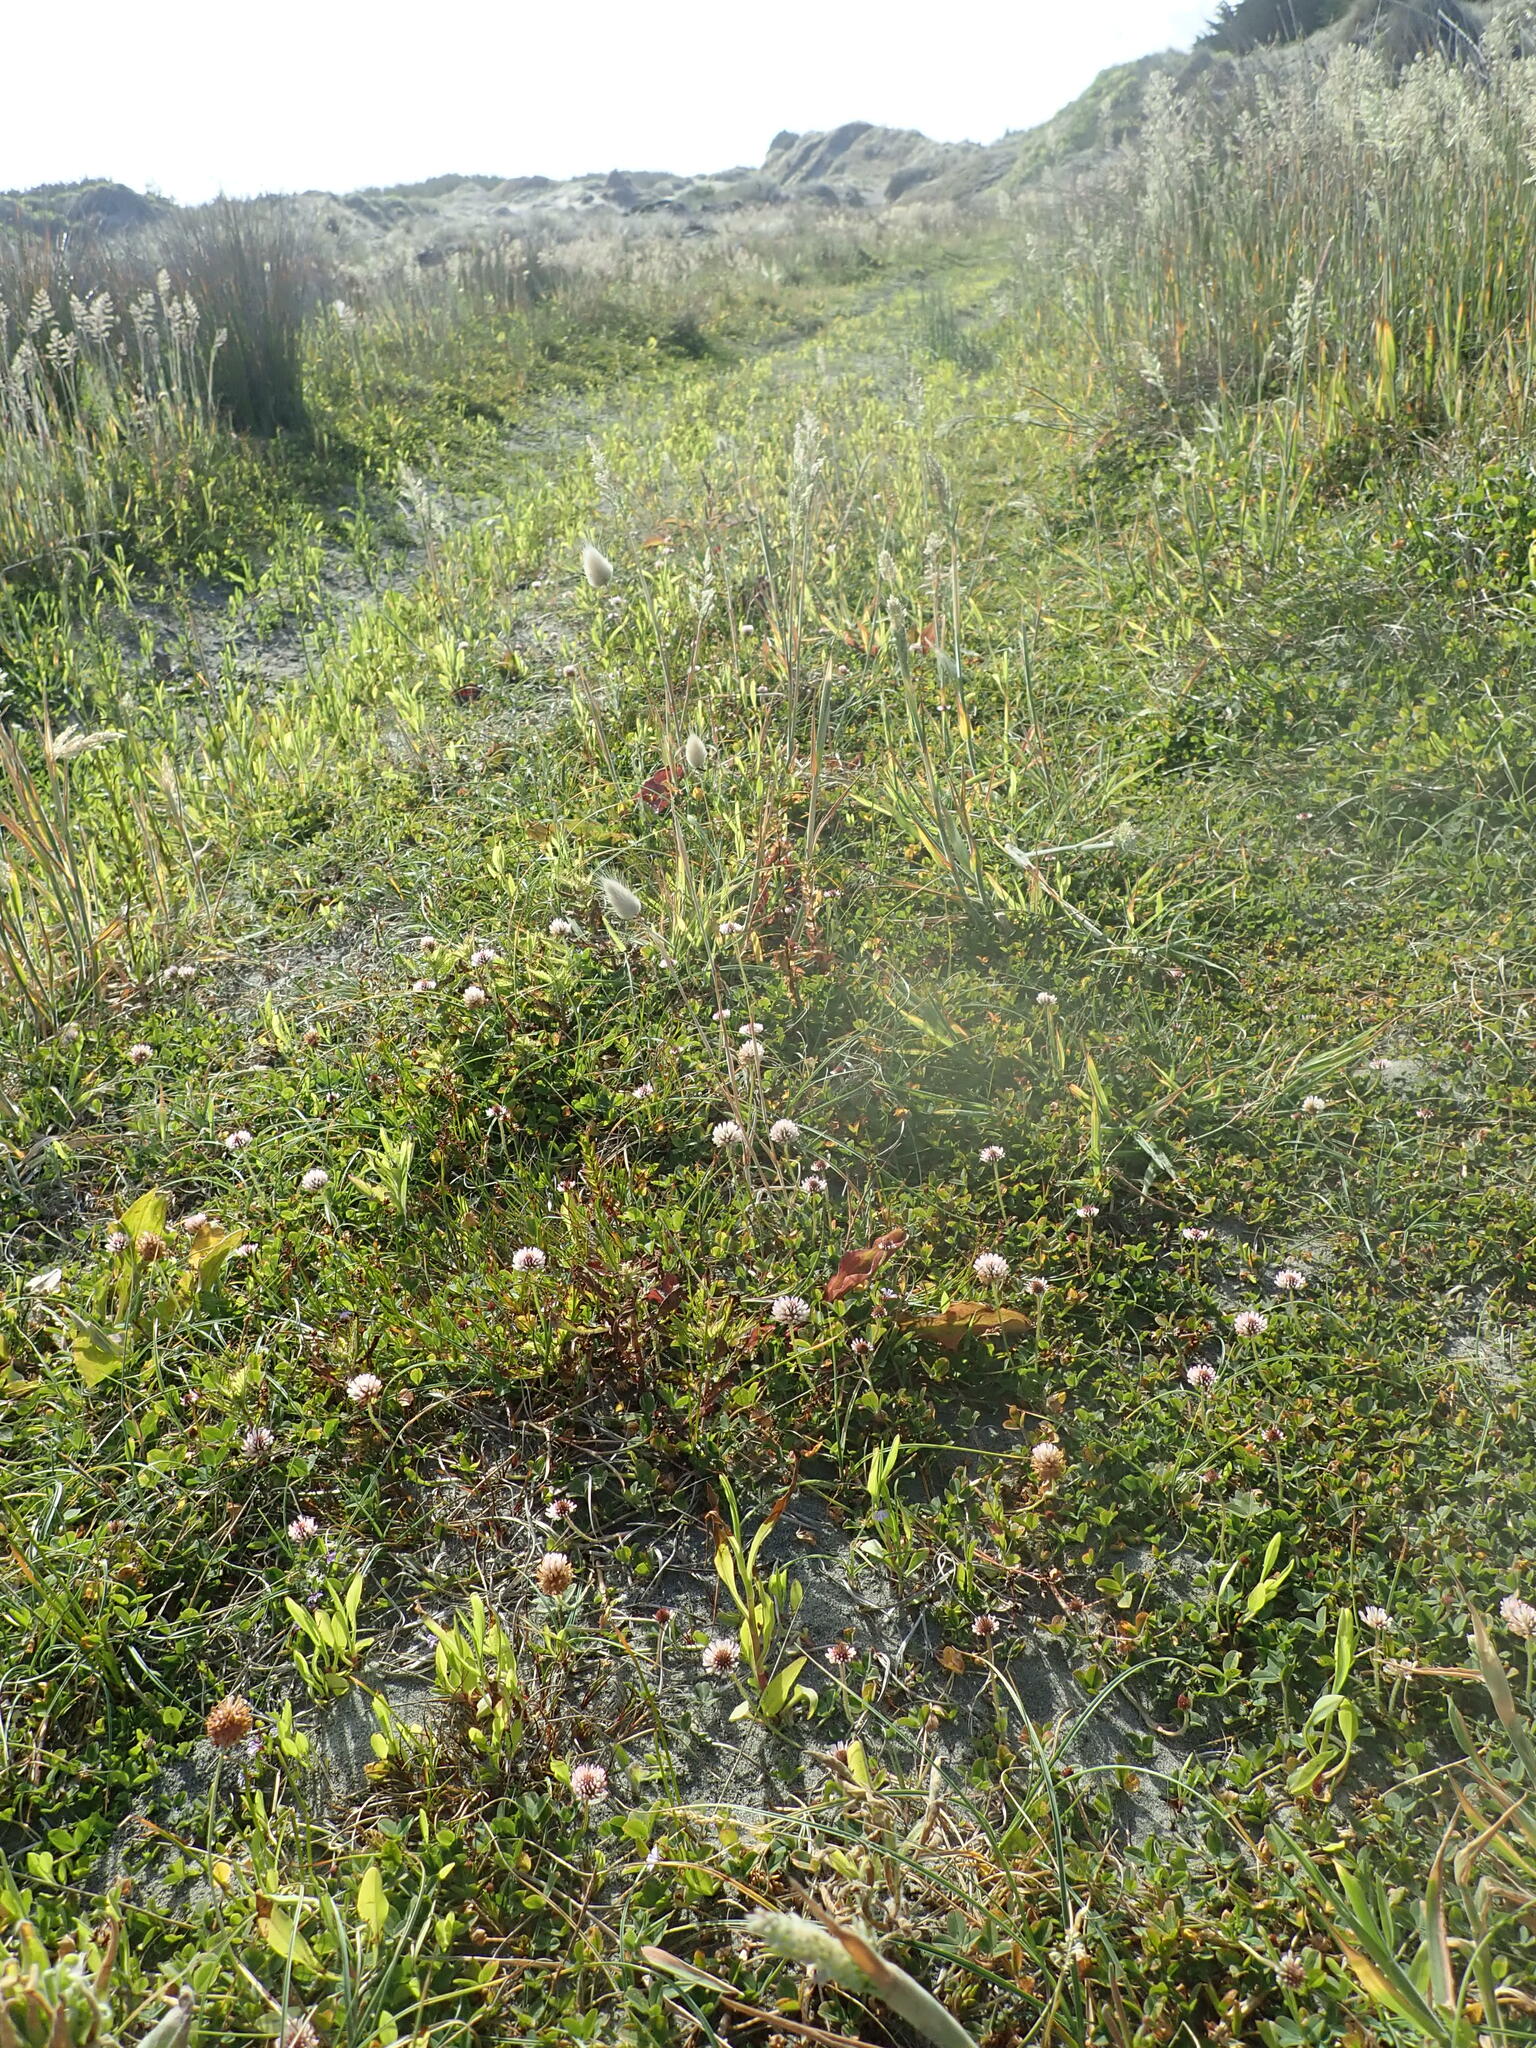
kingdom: Plantae
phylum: Tracheophyta
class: Magnoliopsida
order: Fabales
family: Fabaceae
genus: Trifolium
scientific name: Trifolium fragiferum
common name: Strawberry clover
